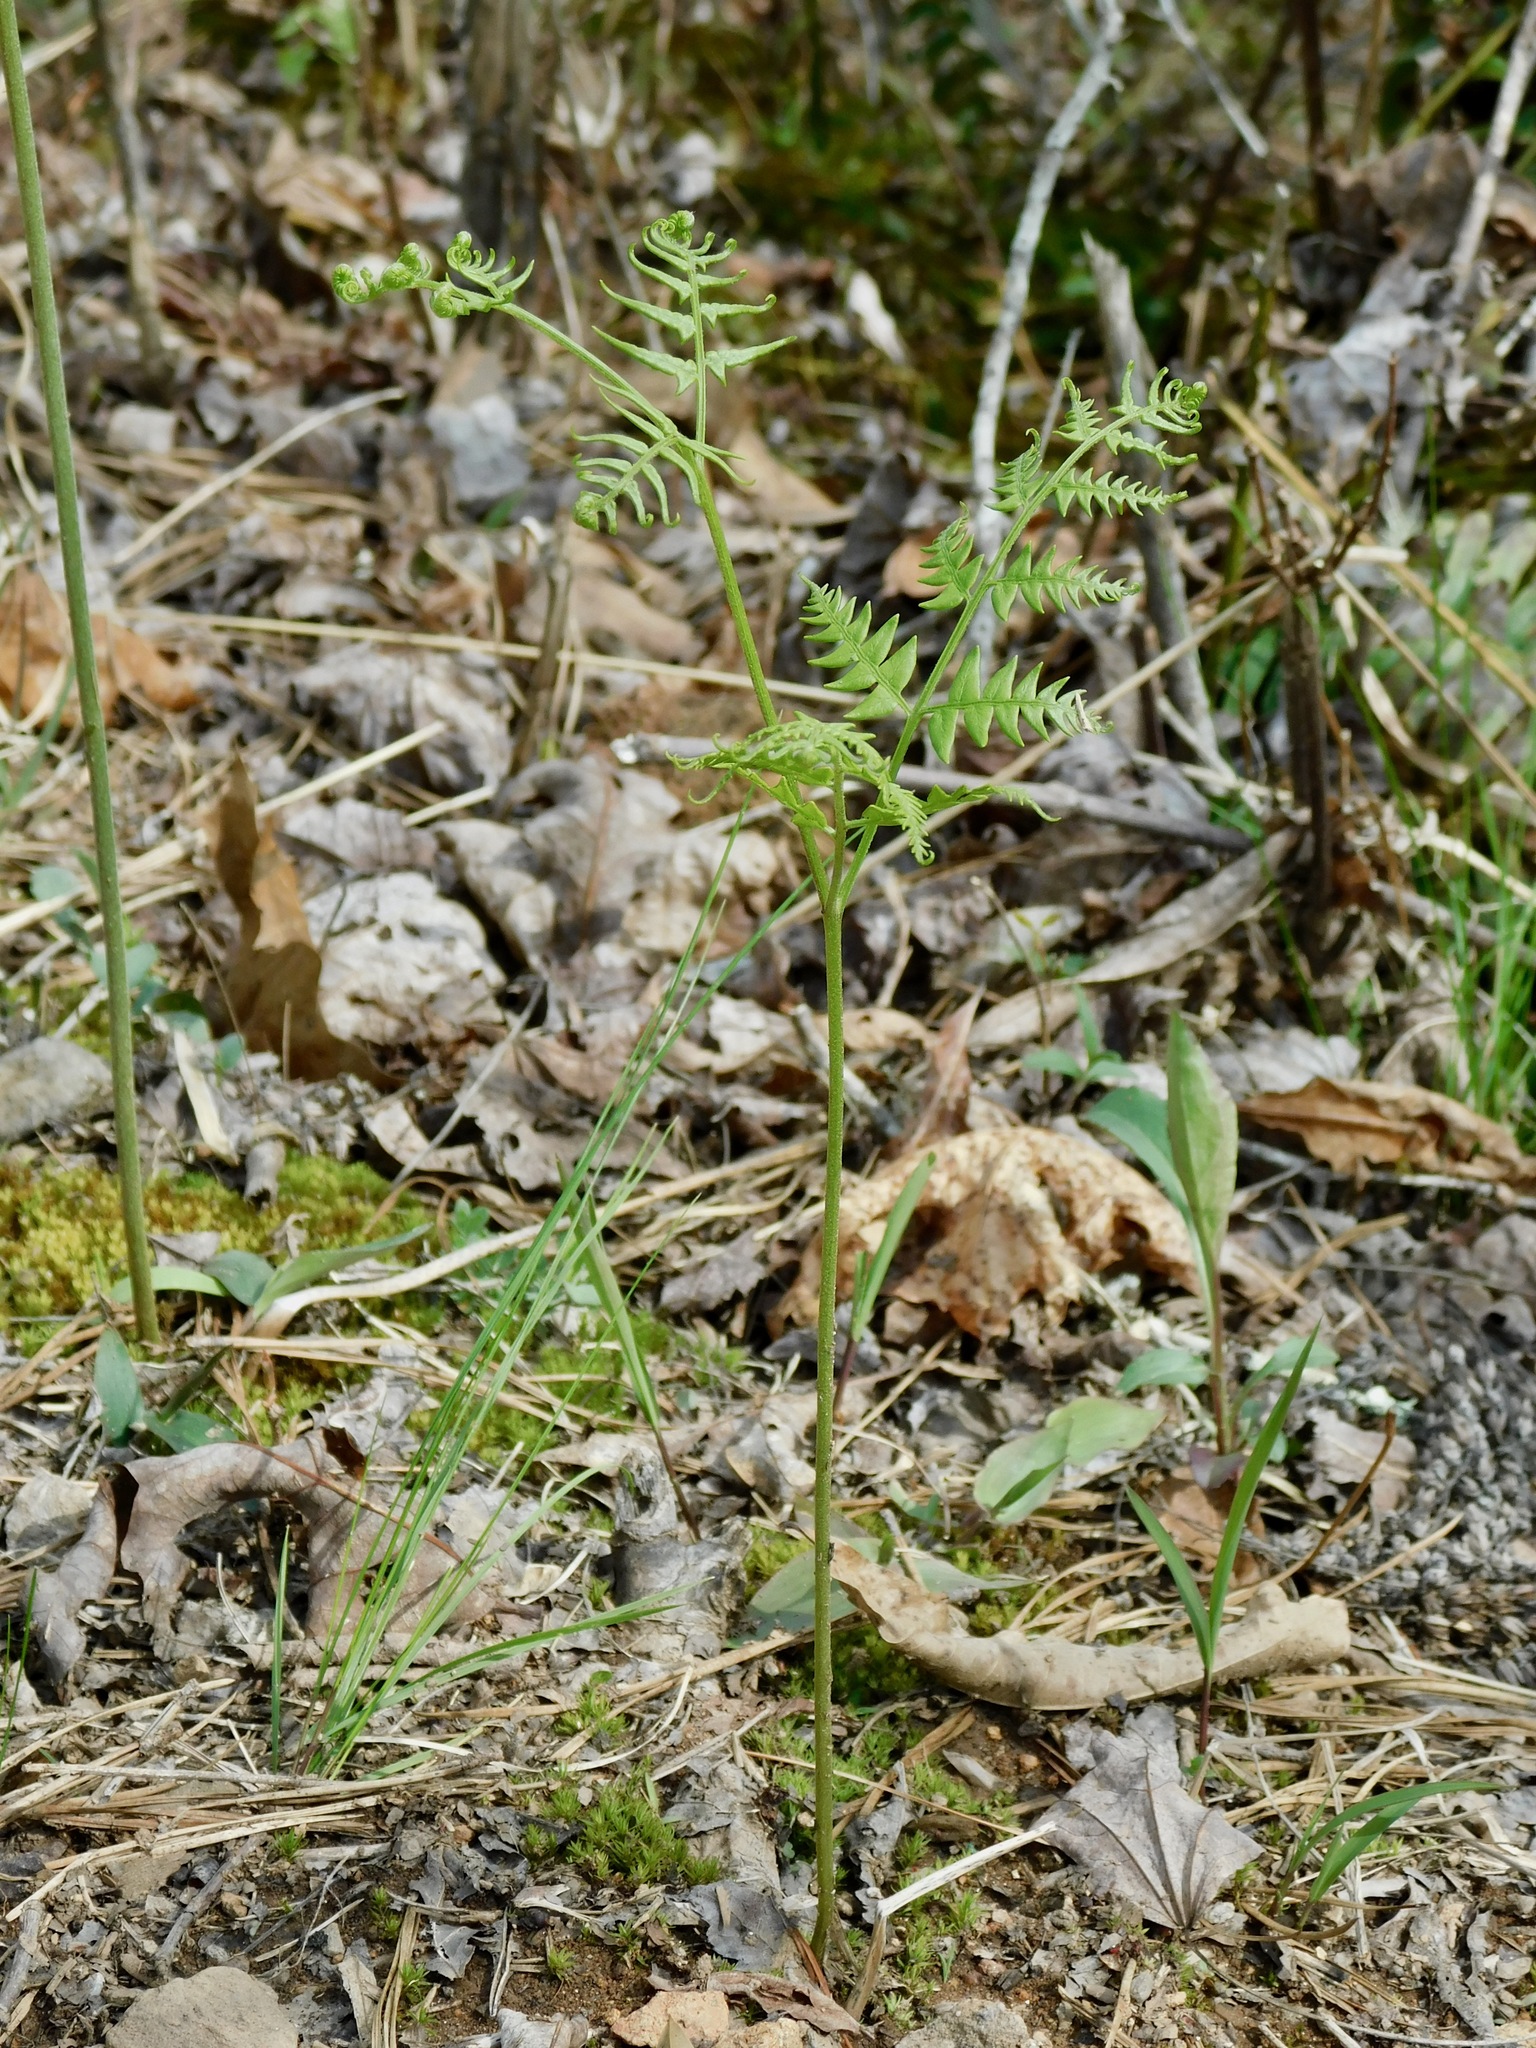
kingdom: Plantae
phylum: Tracheophyta
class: Polypodiopsida
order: Polypodiales
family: Dennstaedtiaceae
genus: Pteridium
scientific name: Pteridium aquilinum
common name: Bracken
